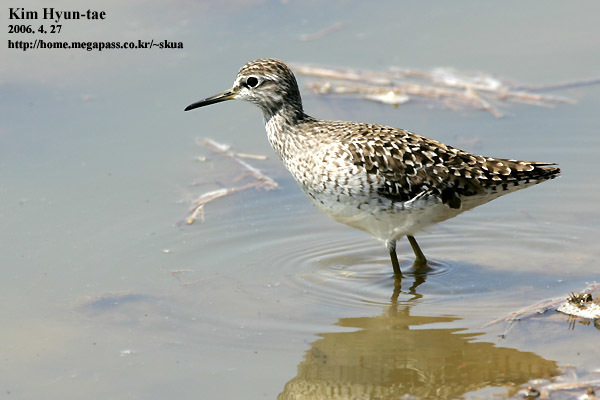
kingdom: Animalia
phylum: Chordata
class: Aves
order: Charadriiformes
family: Scolopacidae
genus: Tringa
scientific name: Tringa glareola
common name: Wood sandpiper
